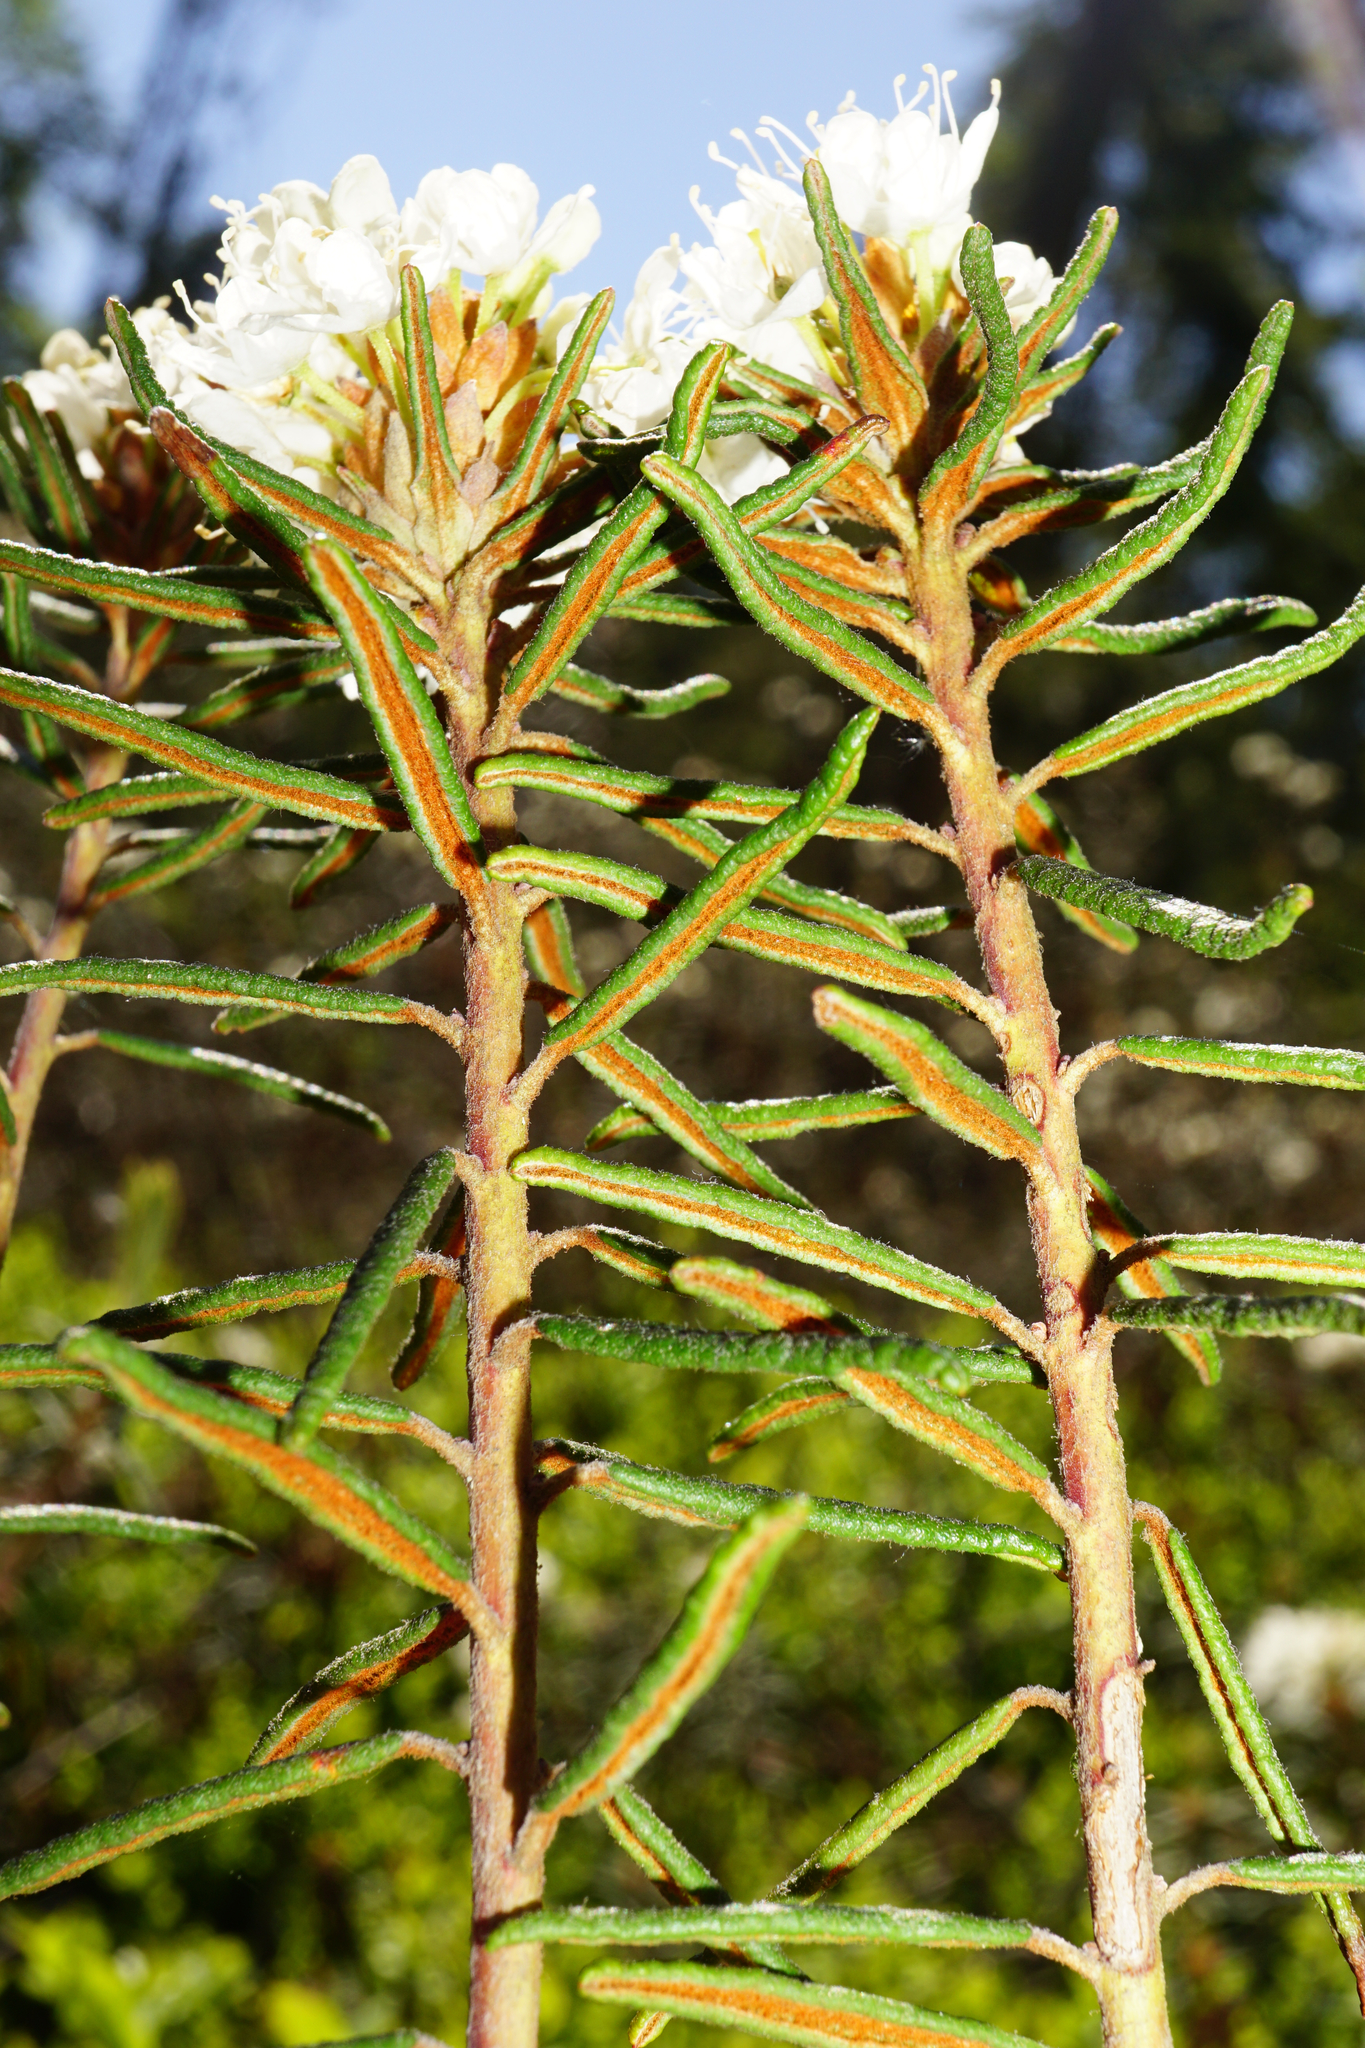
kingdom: Plantae
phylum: Tracheophyta
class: Magnoliopsida
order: Ericales
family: Ericaceae
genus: Rhododendron
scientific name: Rhododendron tomentosum
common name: Marsh labrador tea
